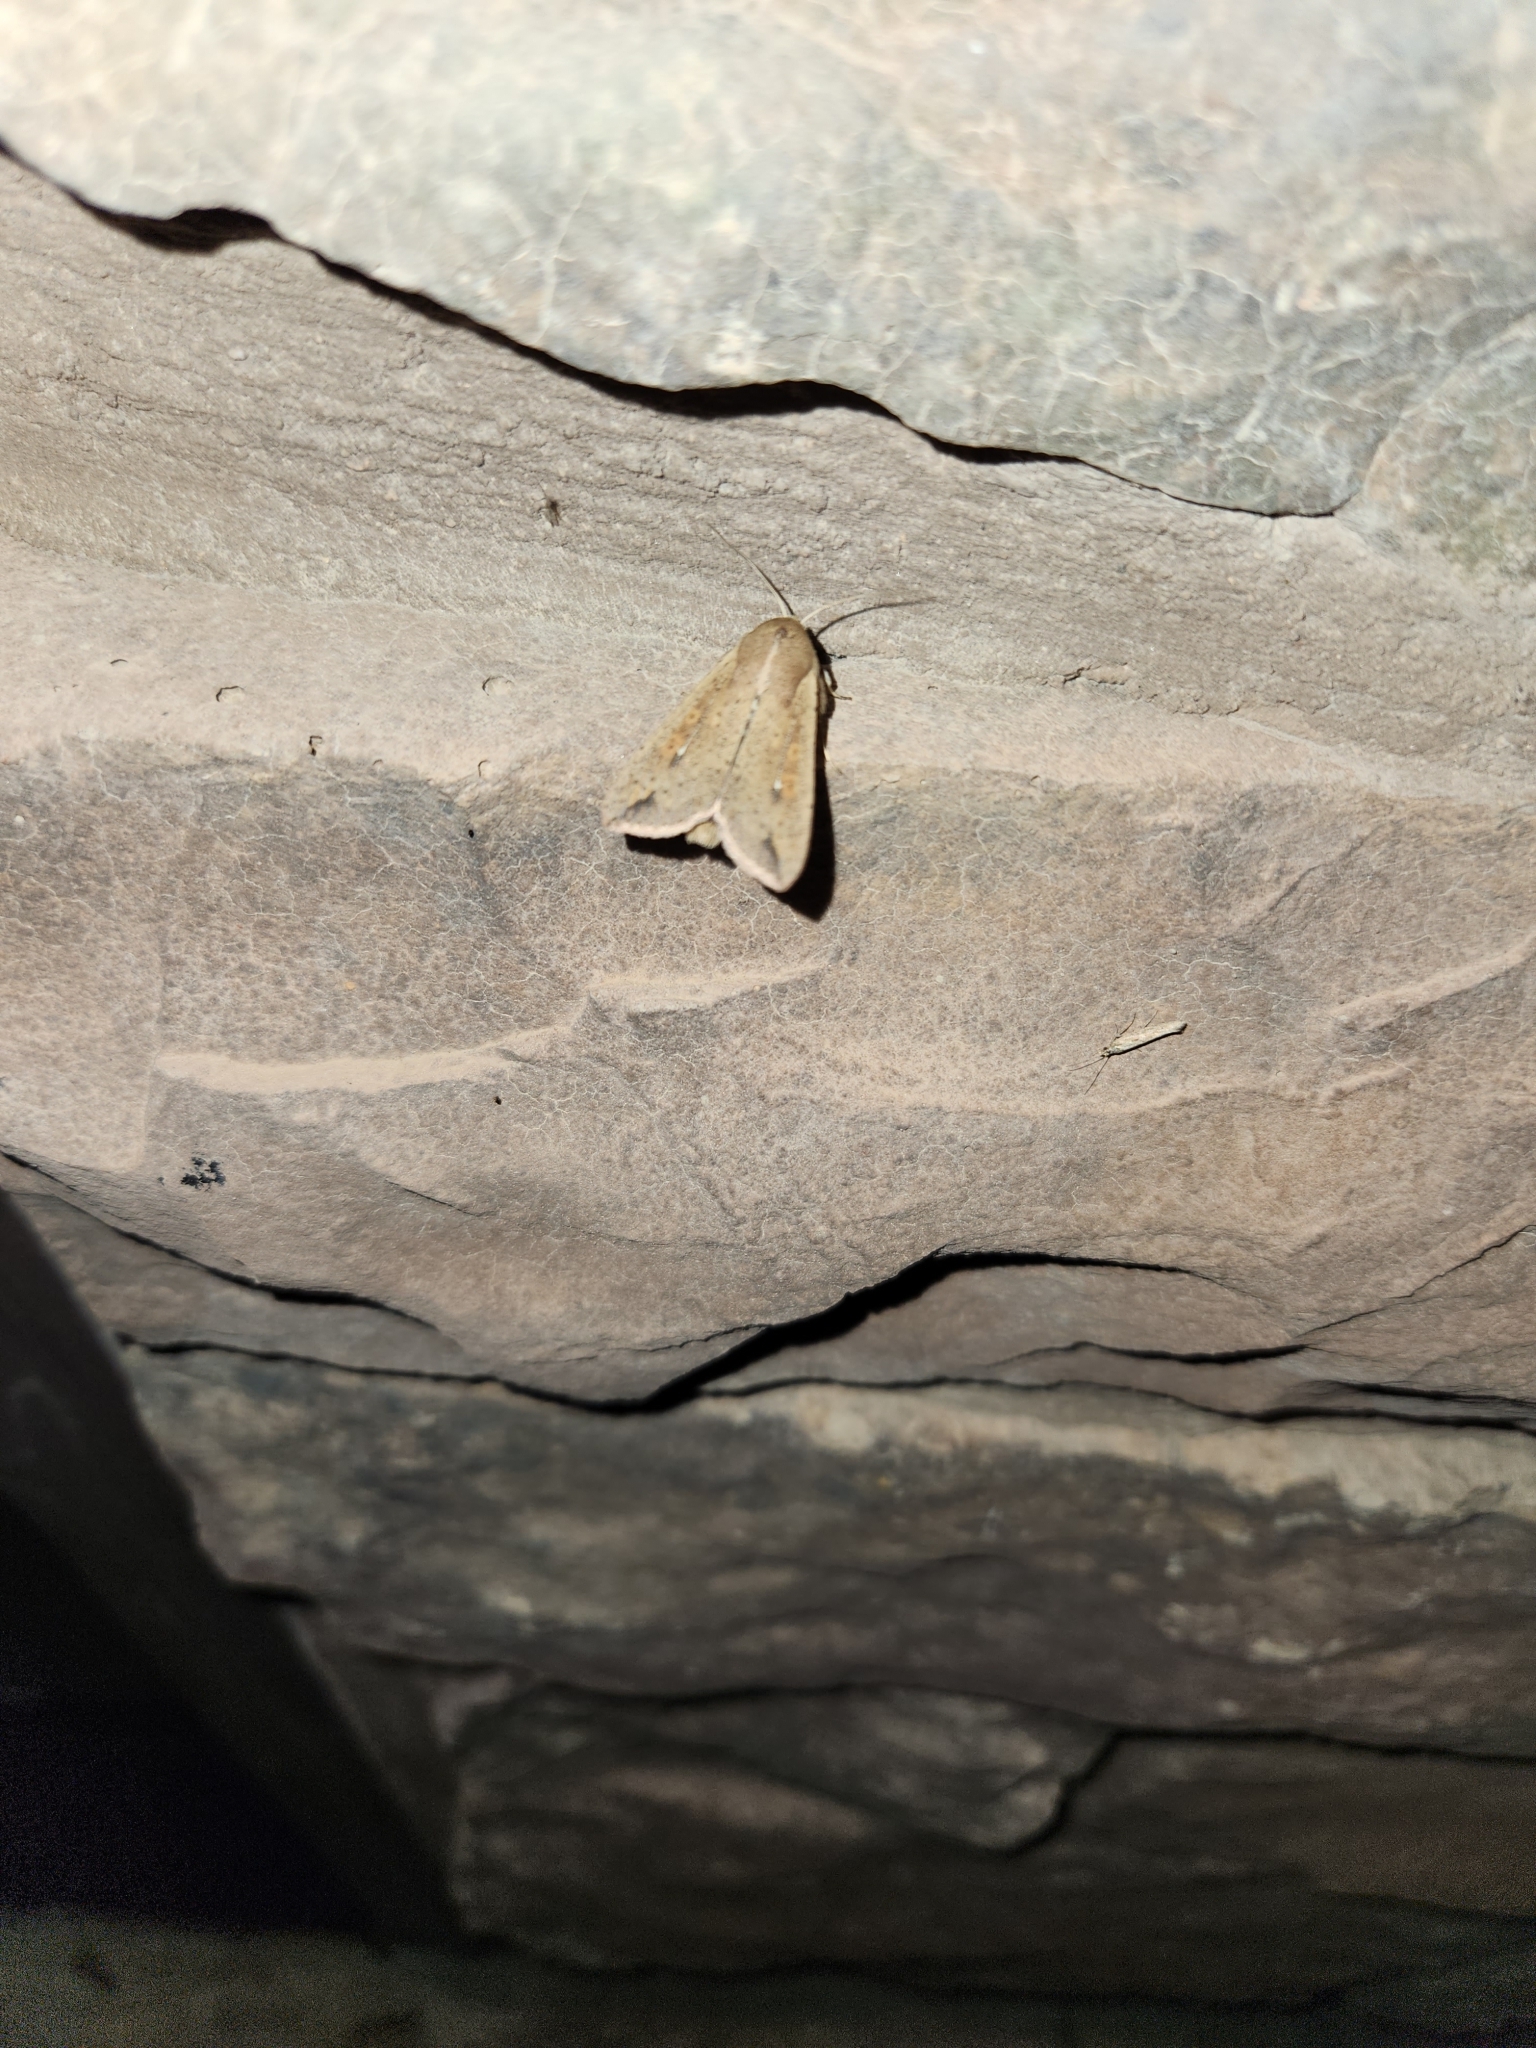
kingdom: Animalia
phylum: Arthropoda
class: Insecta
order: Lepidoptera
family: Noctuidae
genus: Mythimna
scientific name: Mythimna unipuncta
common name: White-speck
